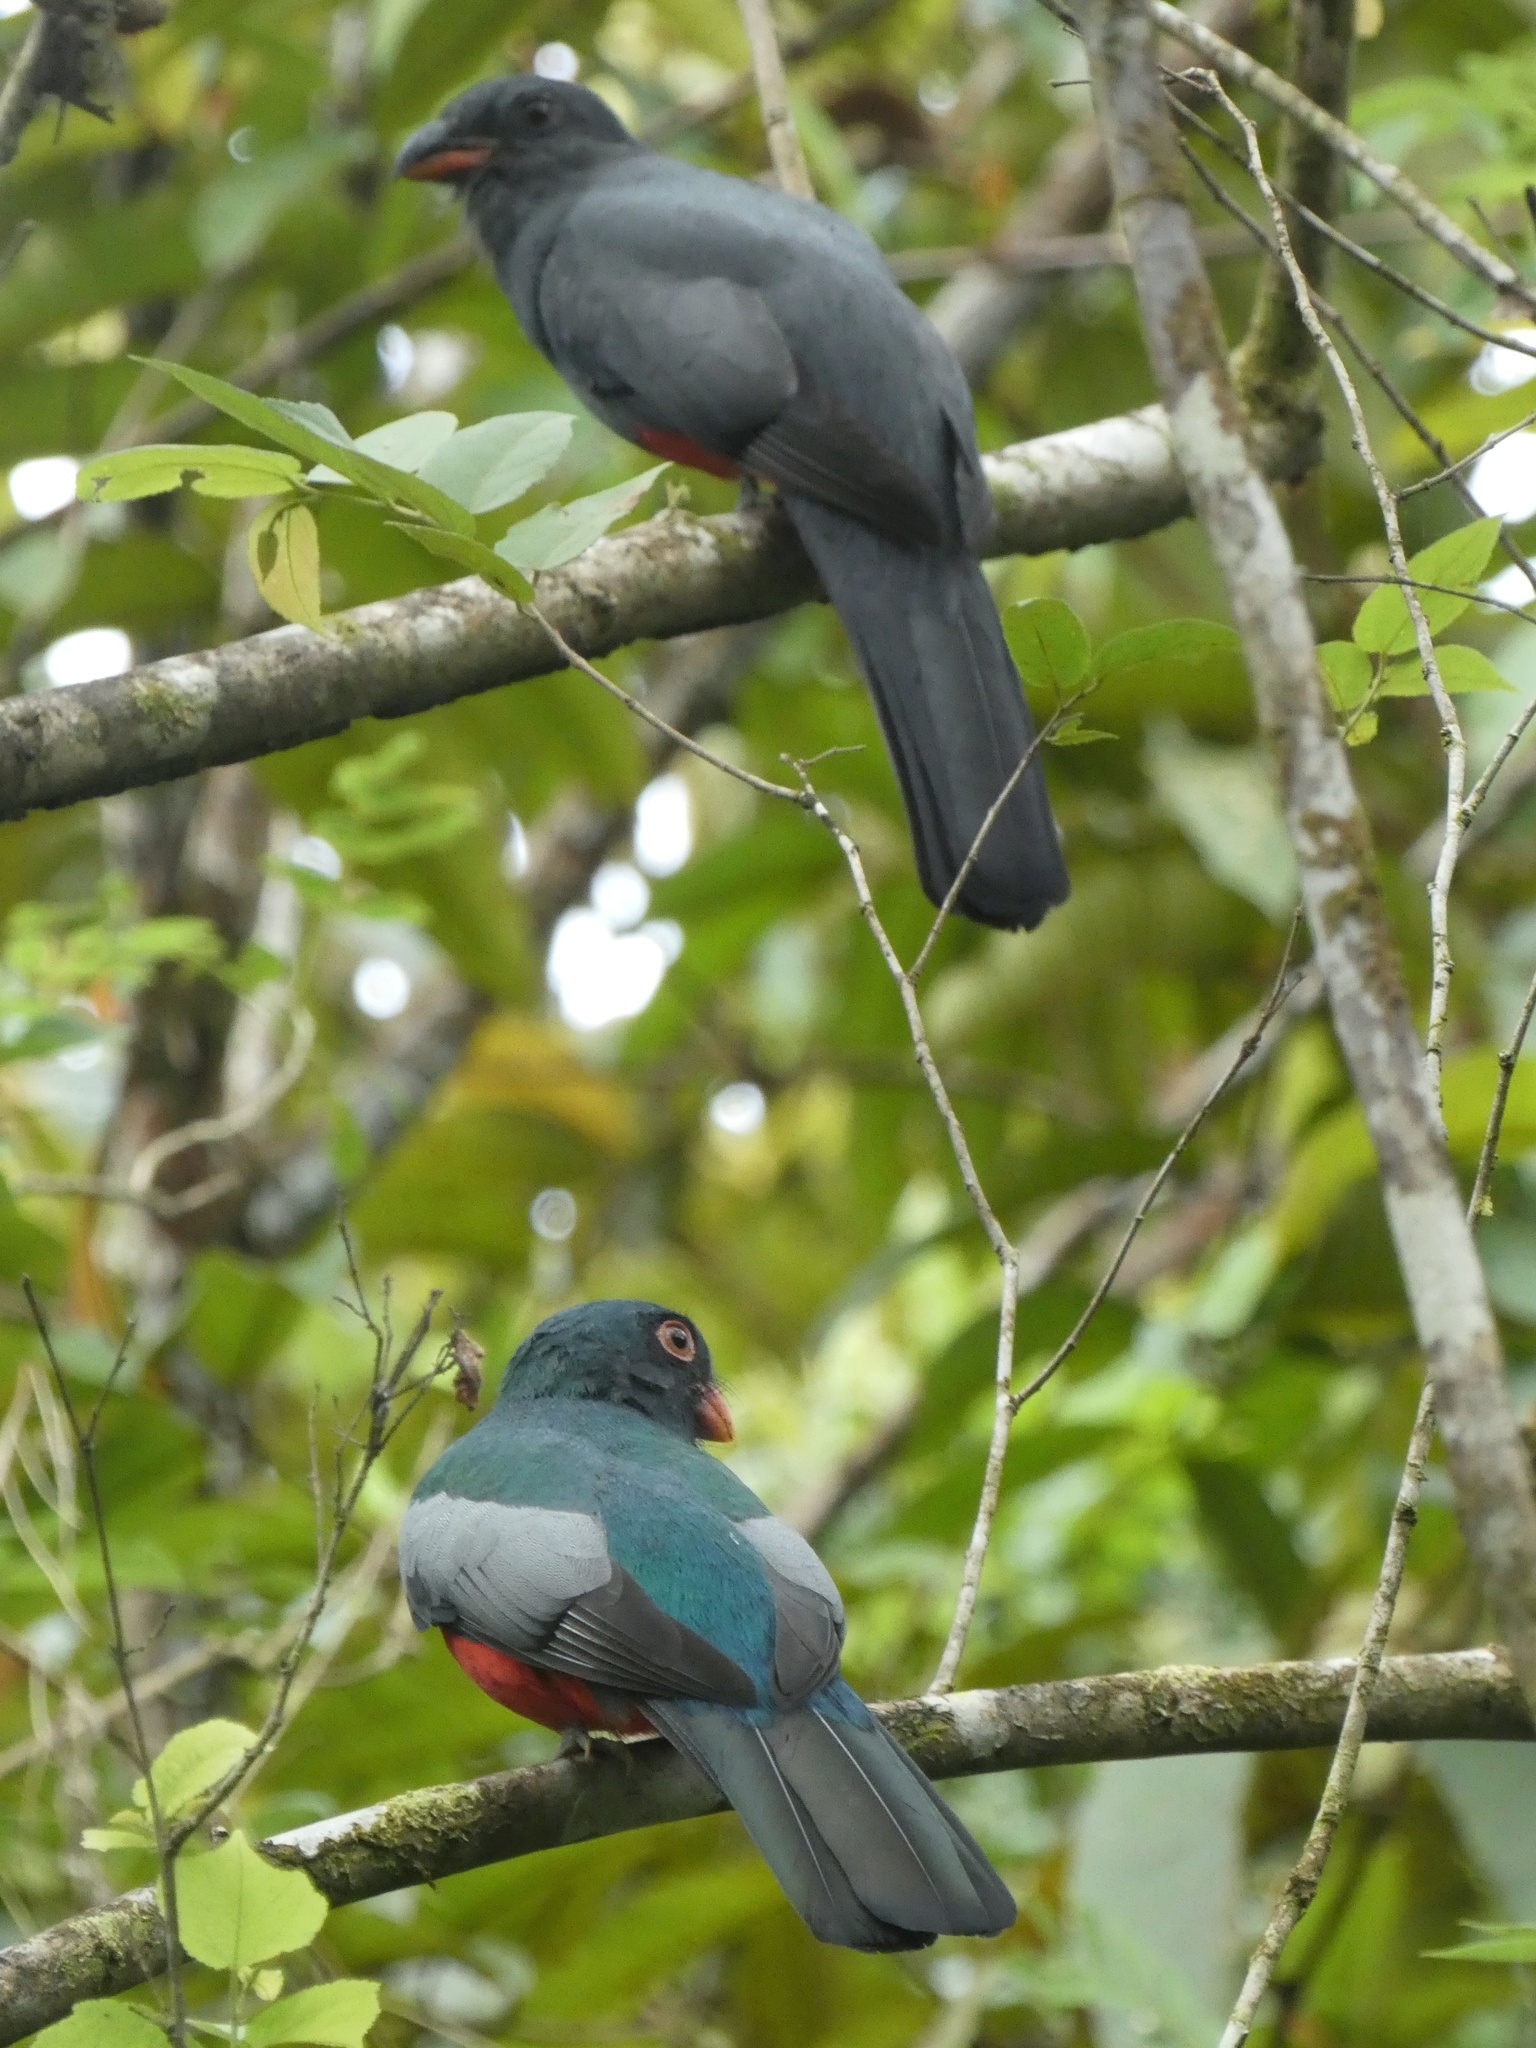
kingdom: Animalia
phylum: Chordata
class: Aves
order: Trogoniformes
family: Trogonidae
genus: Trogon
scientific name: Trogon massena
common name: Slaty-tailed trogon
